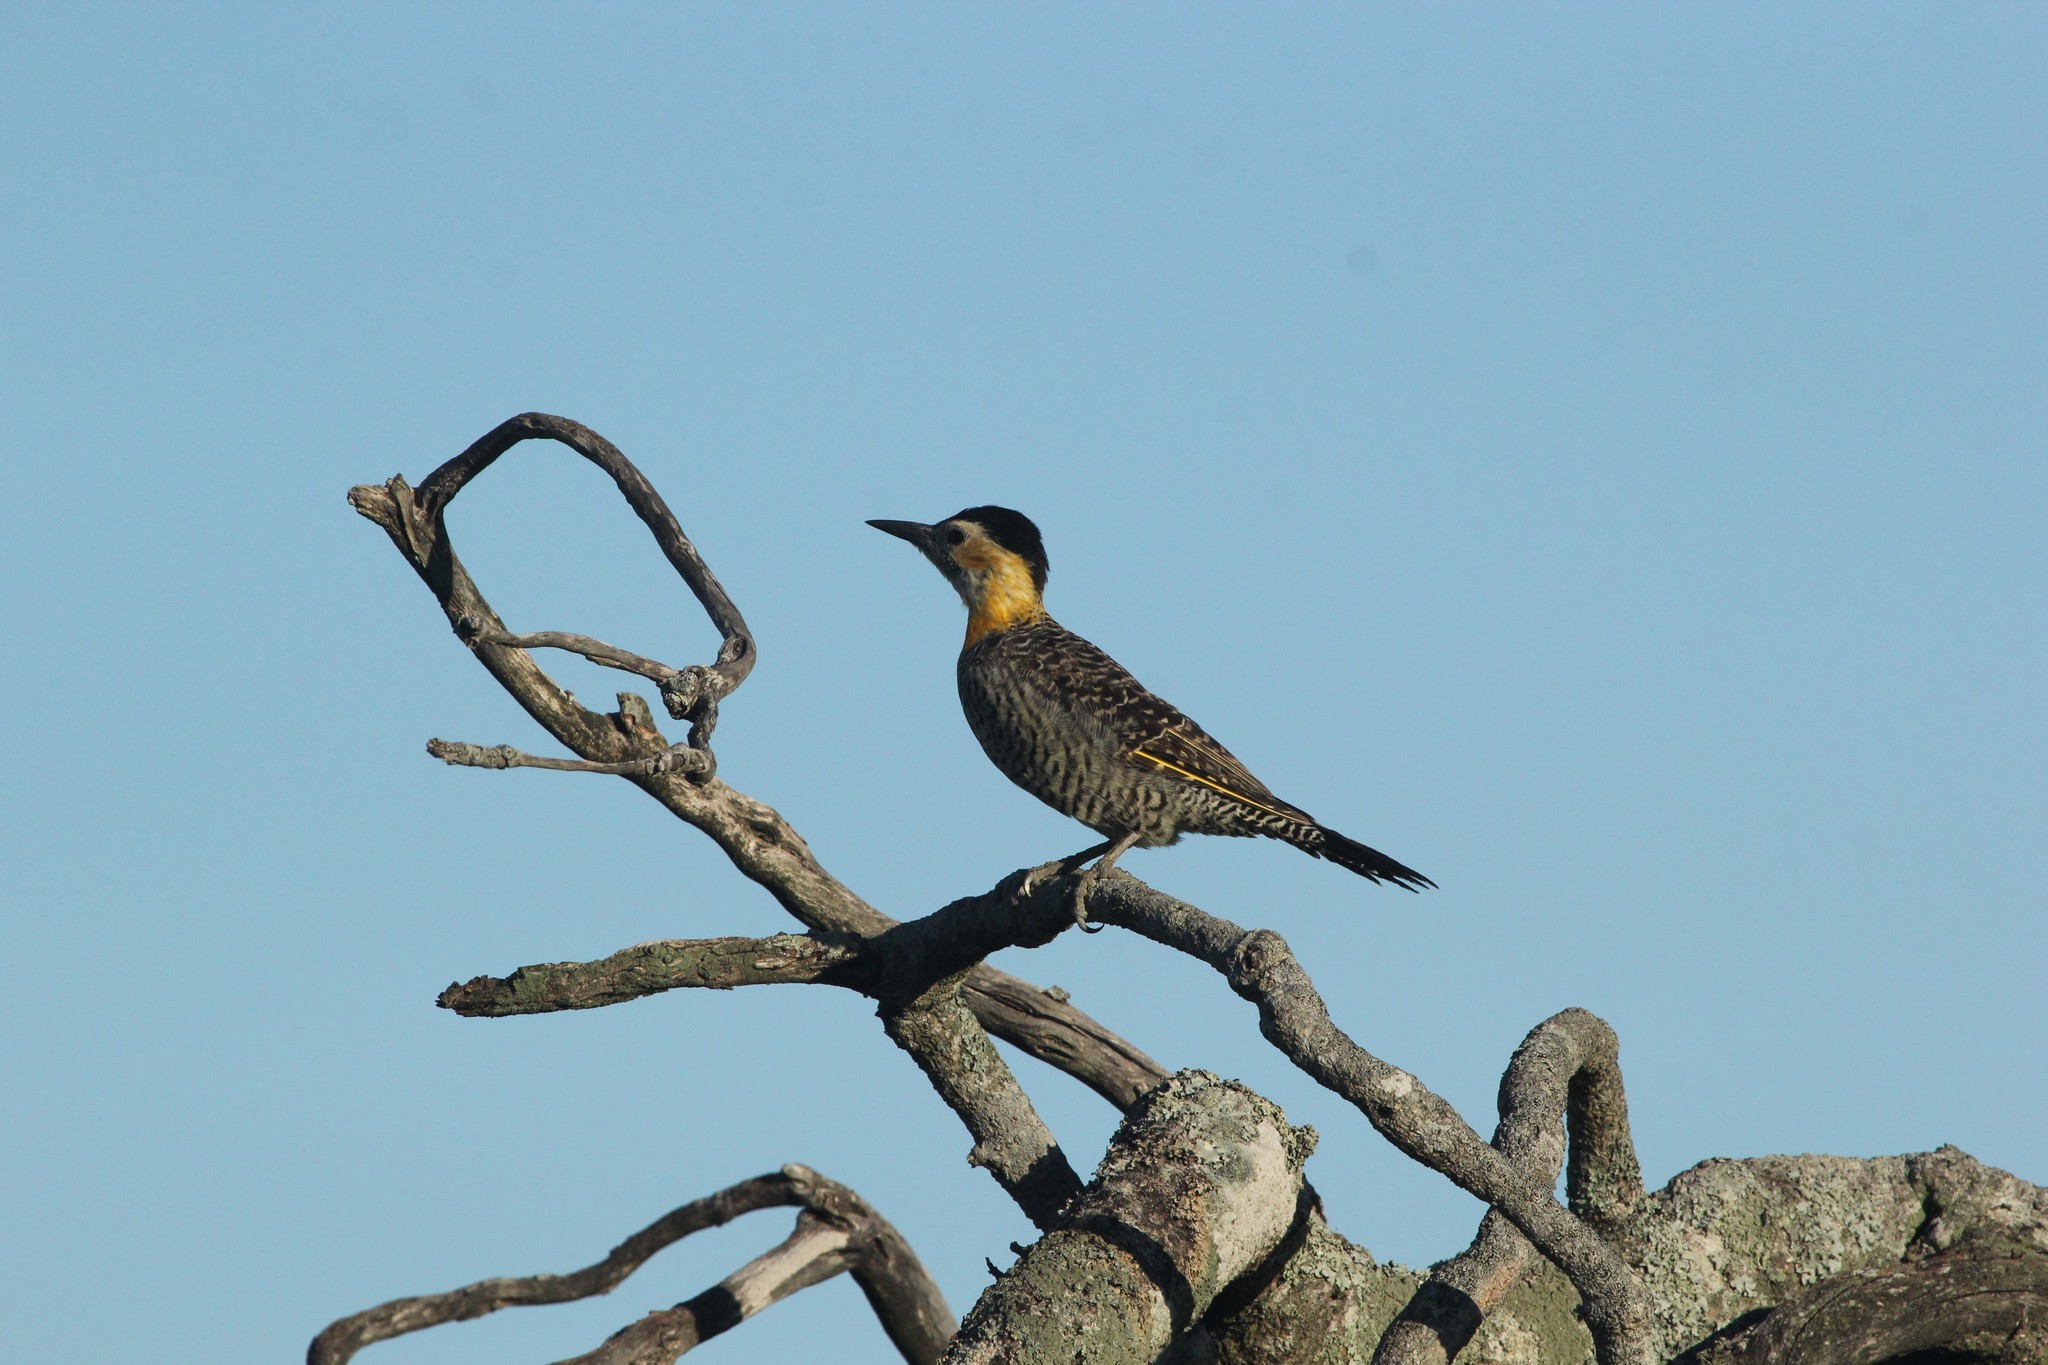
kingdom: Animalia
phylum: Chordata
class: Aves
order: Piciformes
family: Picidae
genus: Colaptes
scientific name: Colaptes campestris
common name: Campo flicker
